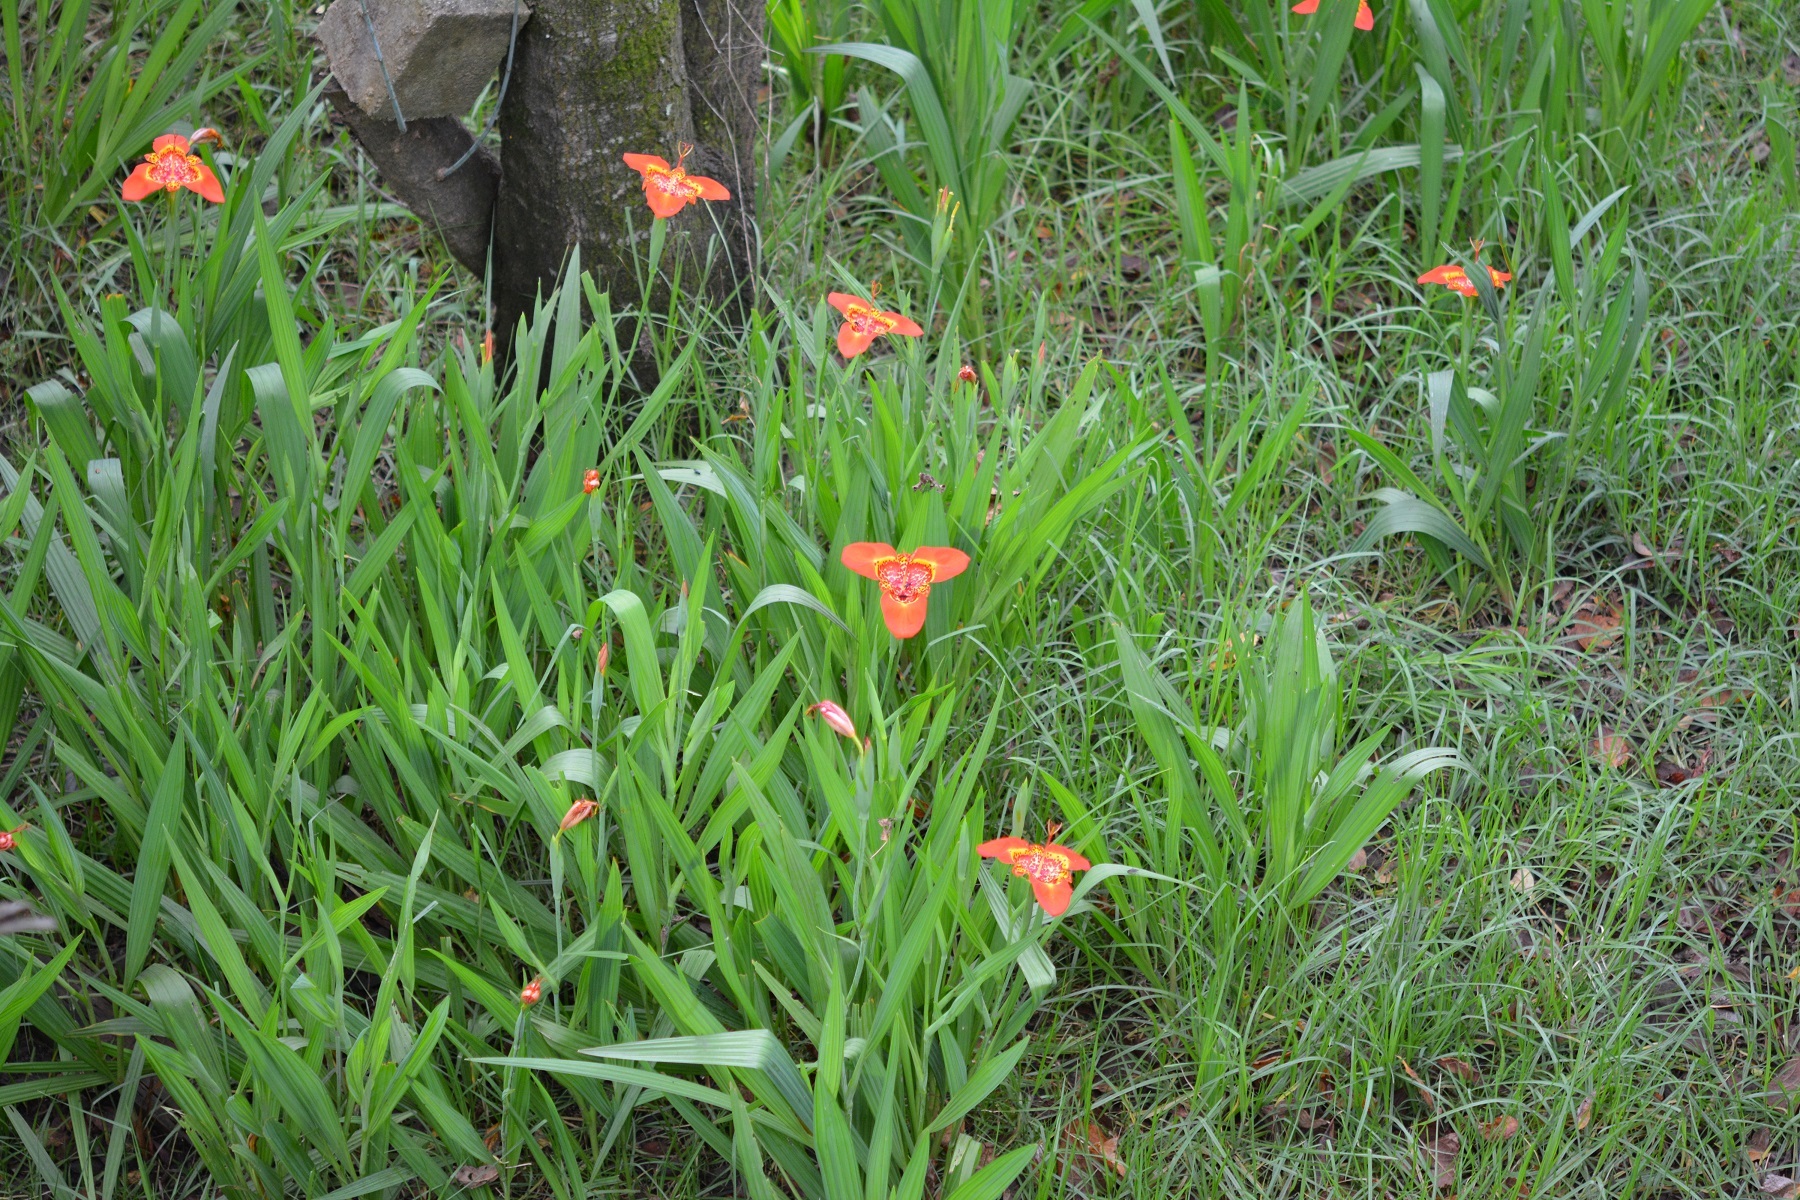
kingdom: Plantae
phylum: Tracheophyta
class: Liliopsida
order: Asparagales
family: Iridaceae
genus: Tigridia
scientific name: Tigridia pavonia
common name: Peacock-flower
